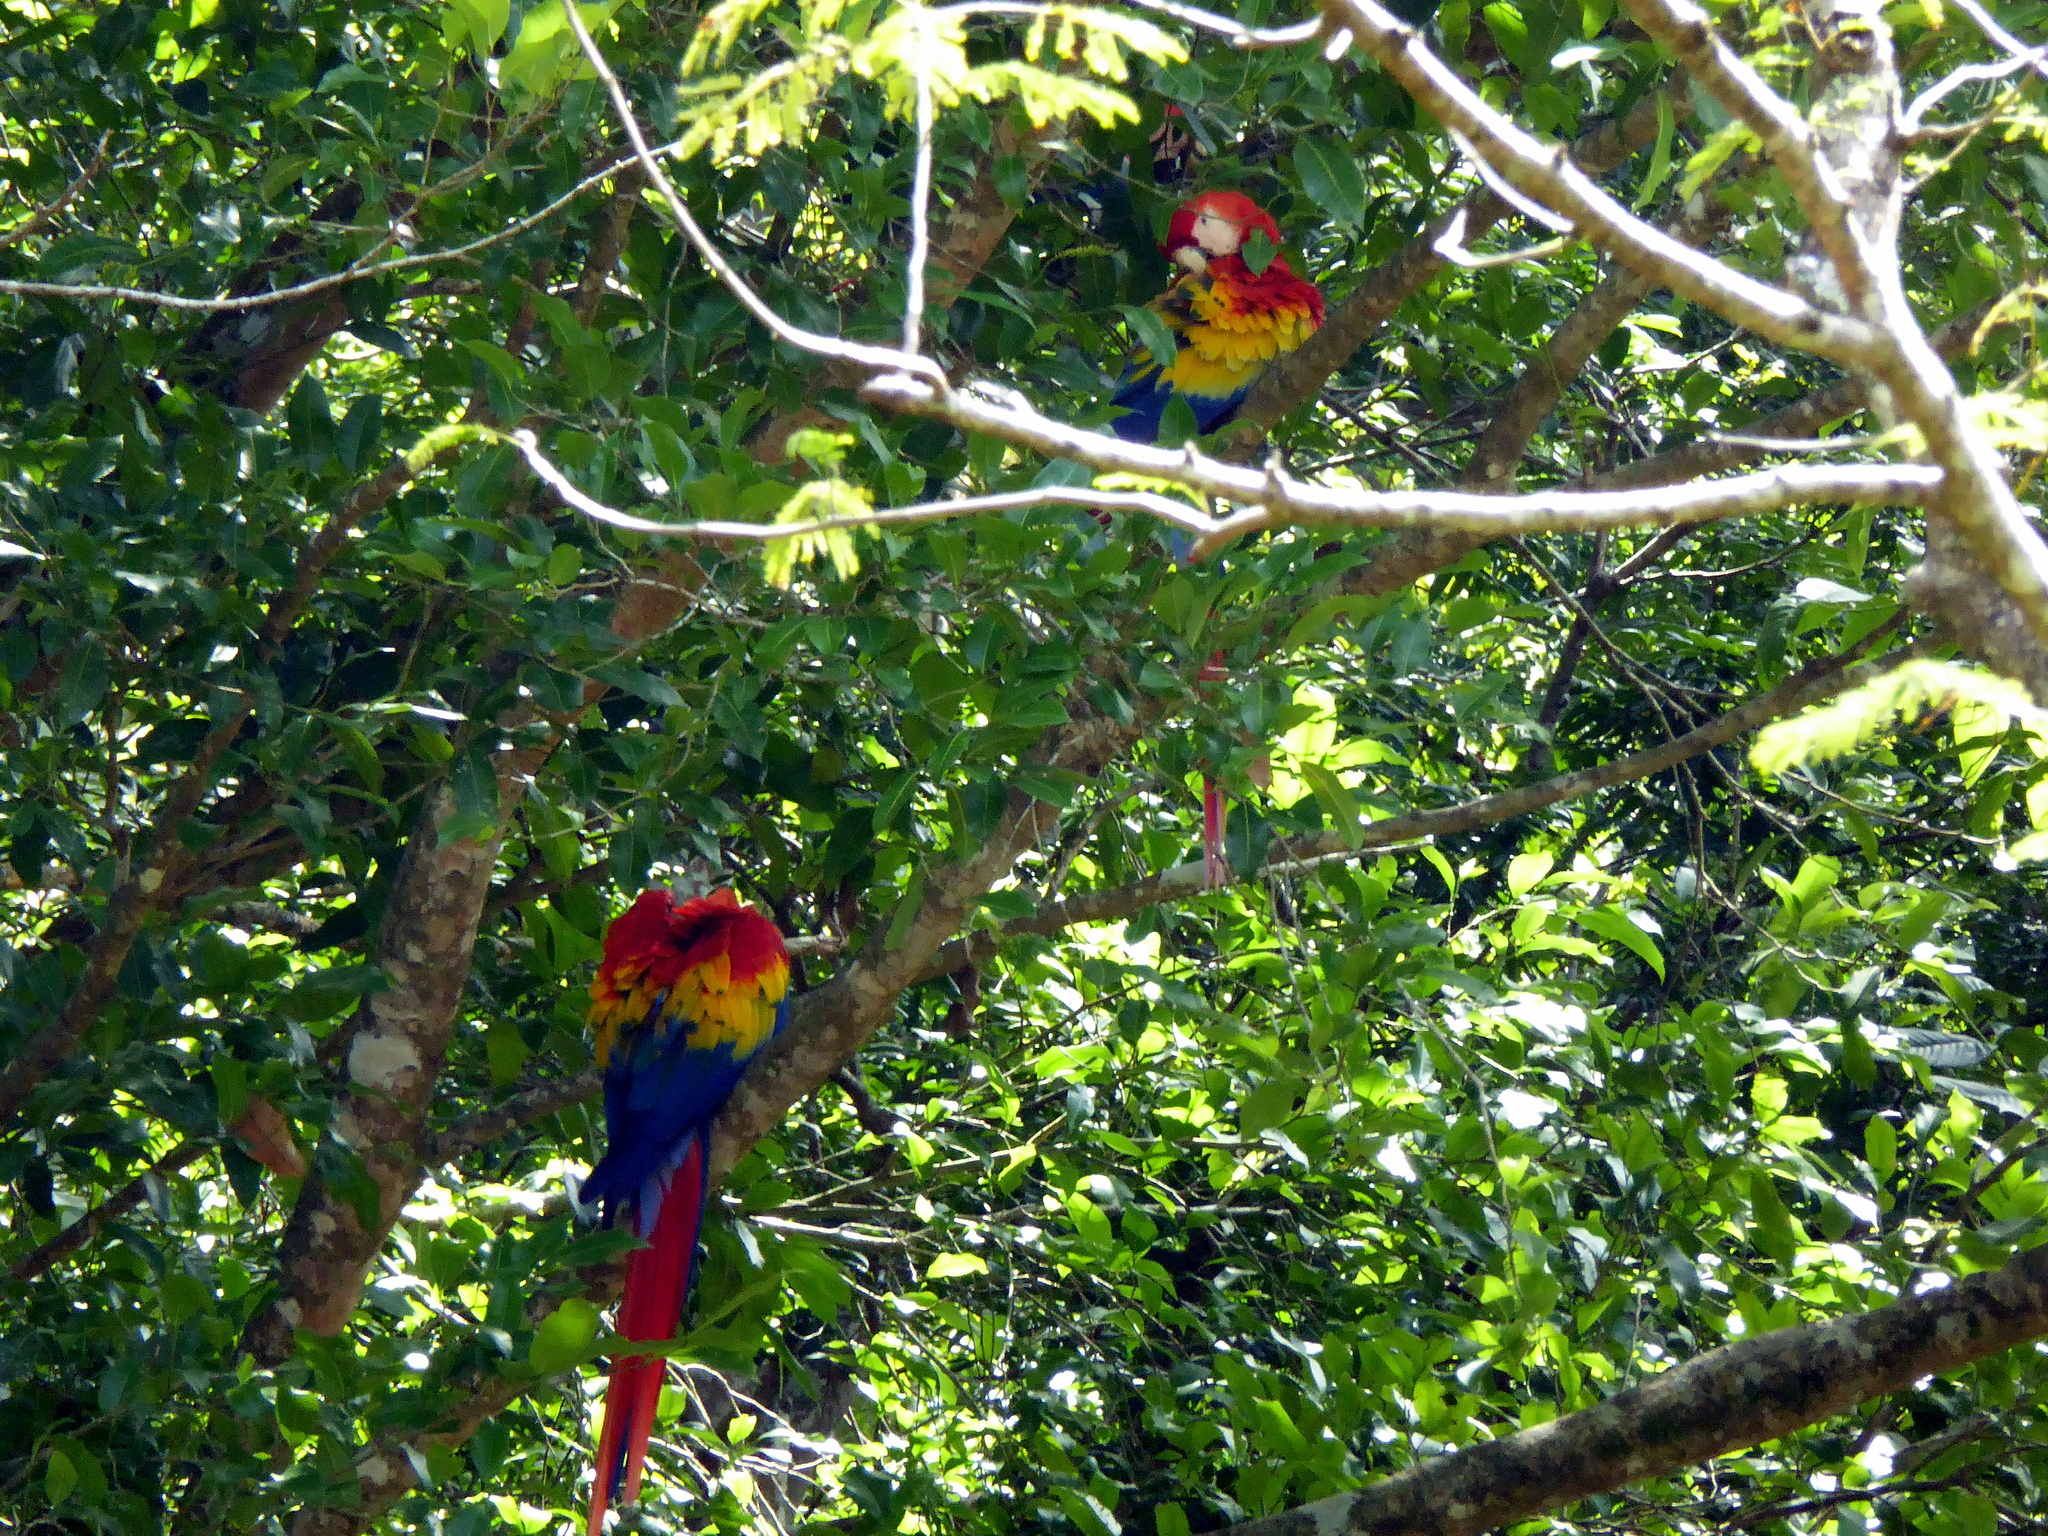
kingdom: Animalia
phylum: Chordata
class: Aves
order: Psittaciformes
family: Psittacidae
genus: Ara
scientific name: Ara macao
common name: Scarlet macaw
